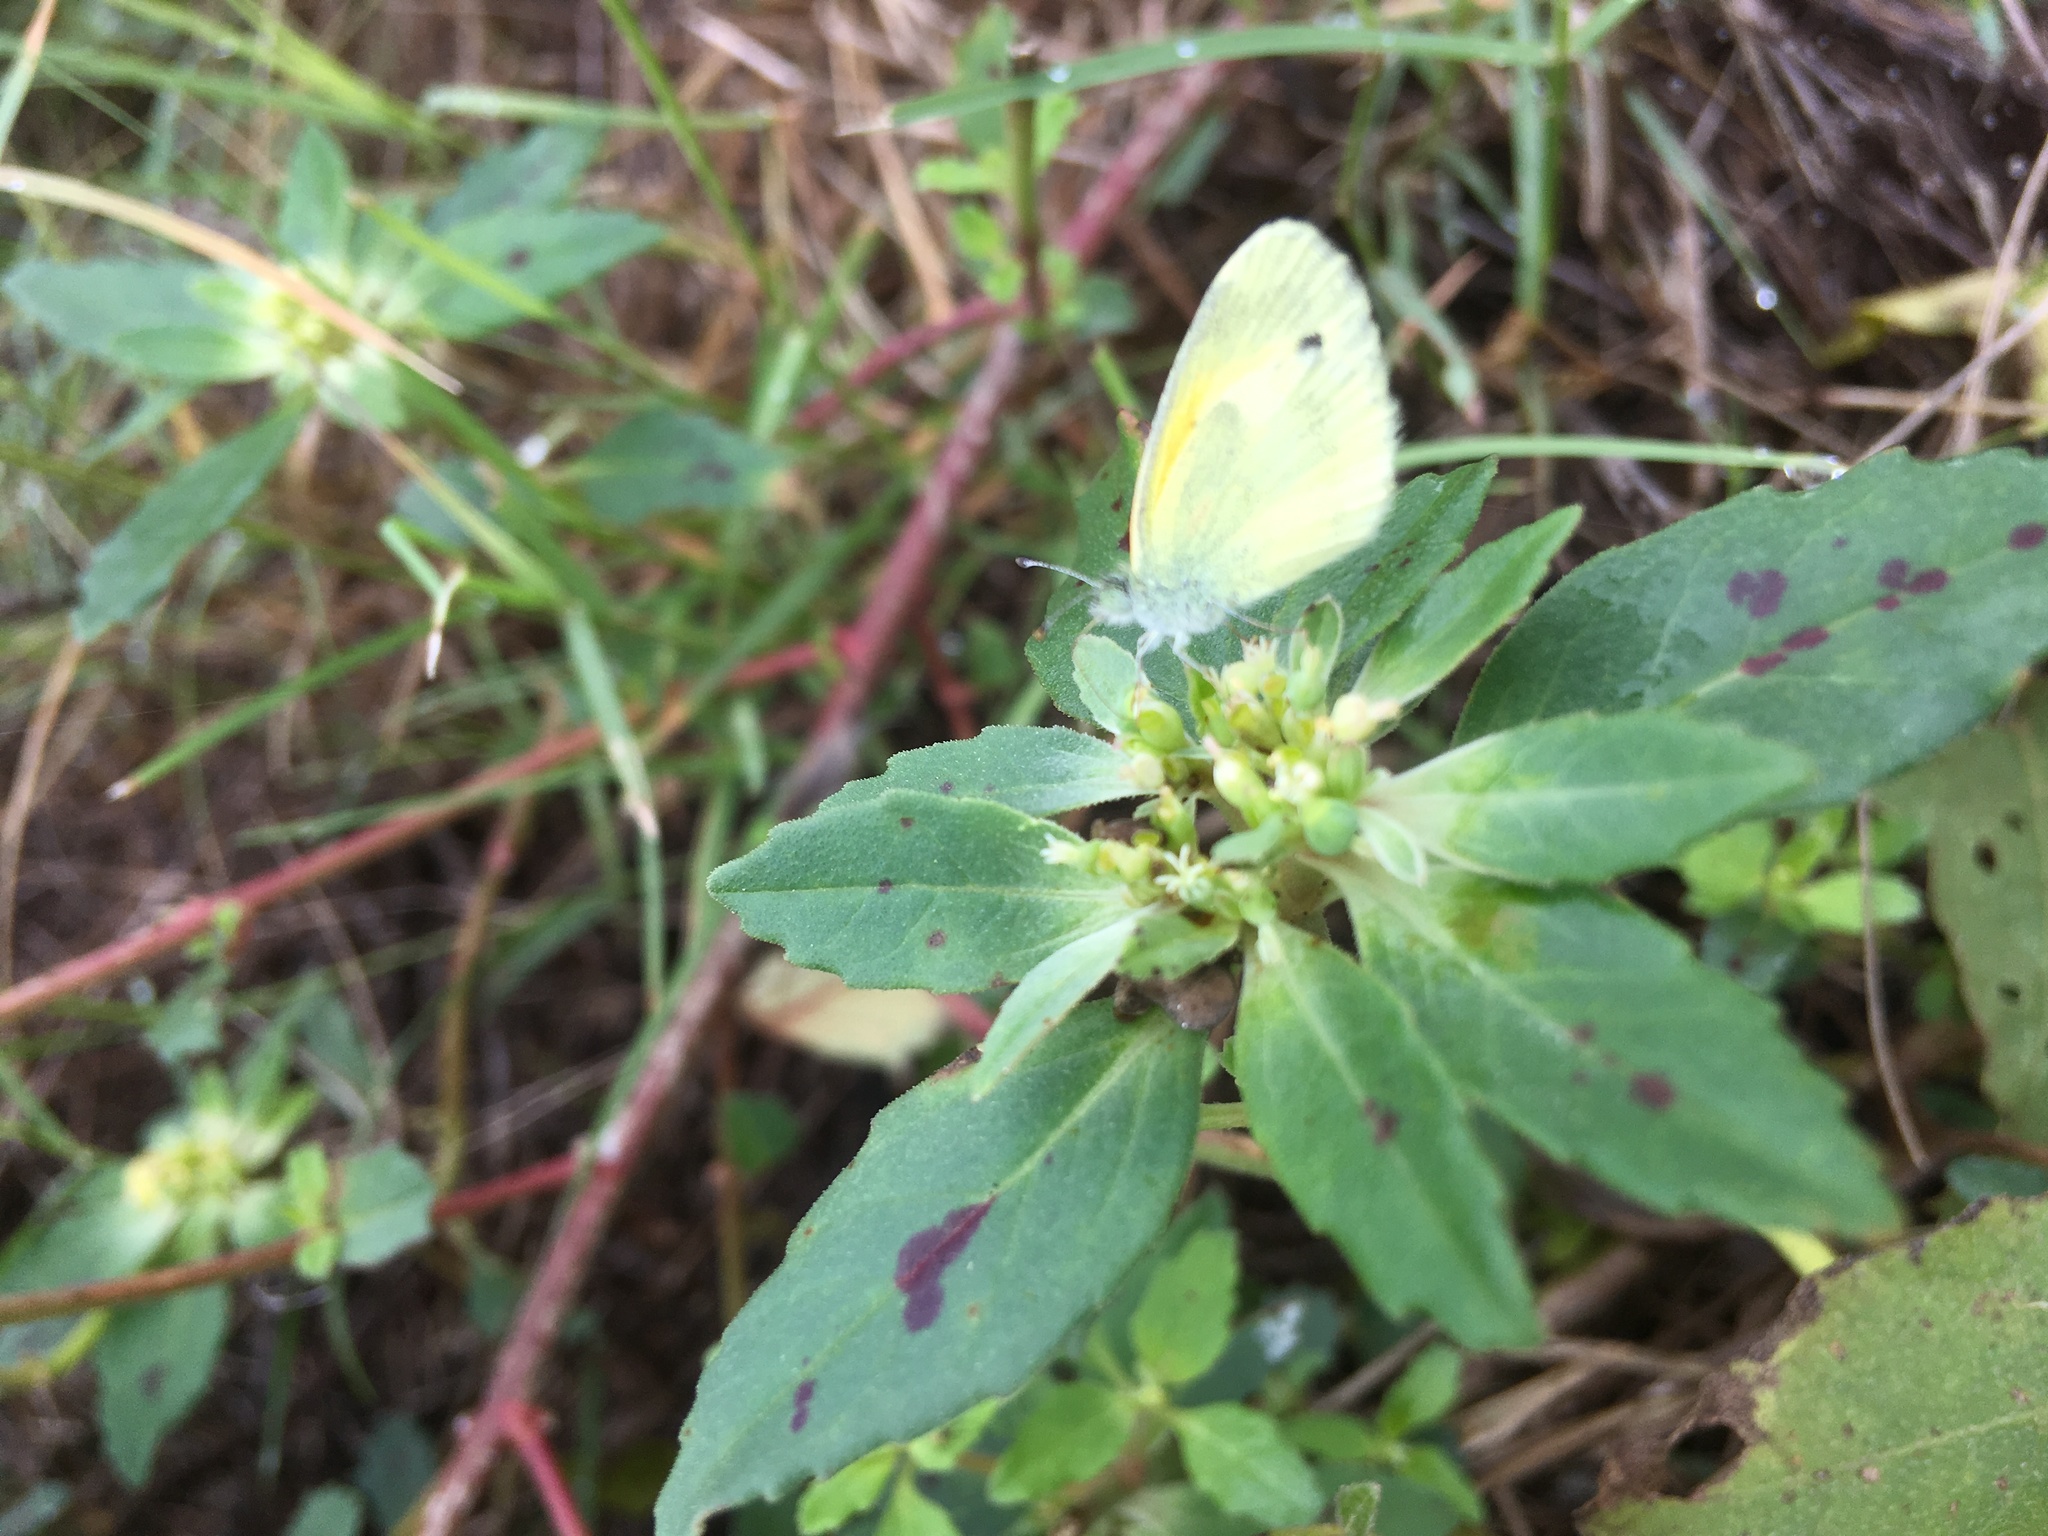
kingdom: Animalia
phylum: Arthropoda
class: Insecta
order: Lepidoptera
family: Pieridae
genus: Nathalis
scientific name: Nathalis iole
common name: Dainty sulphur
